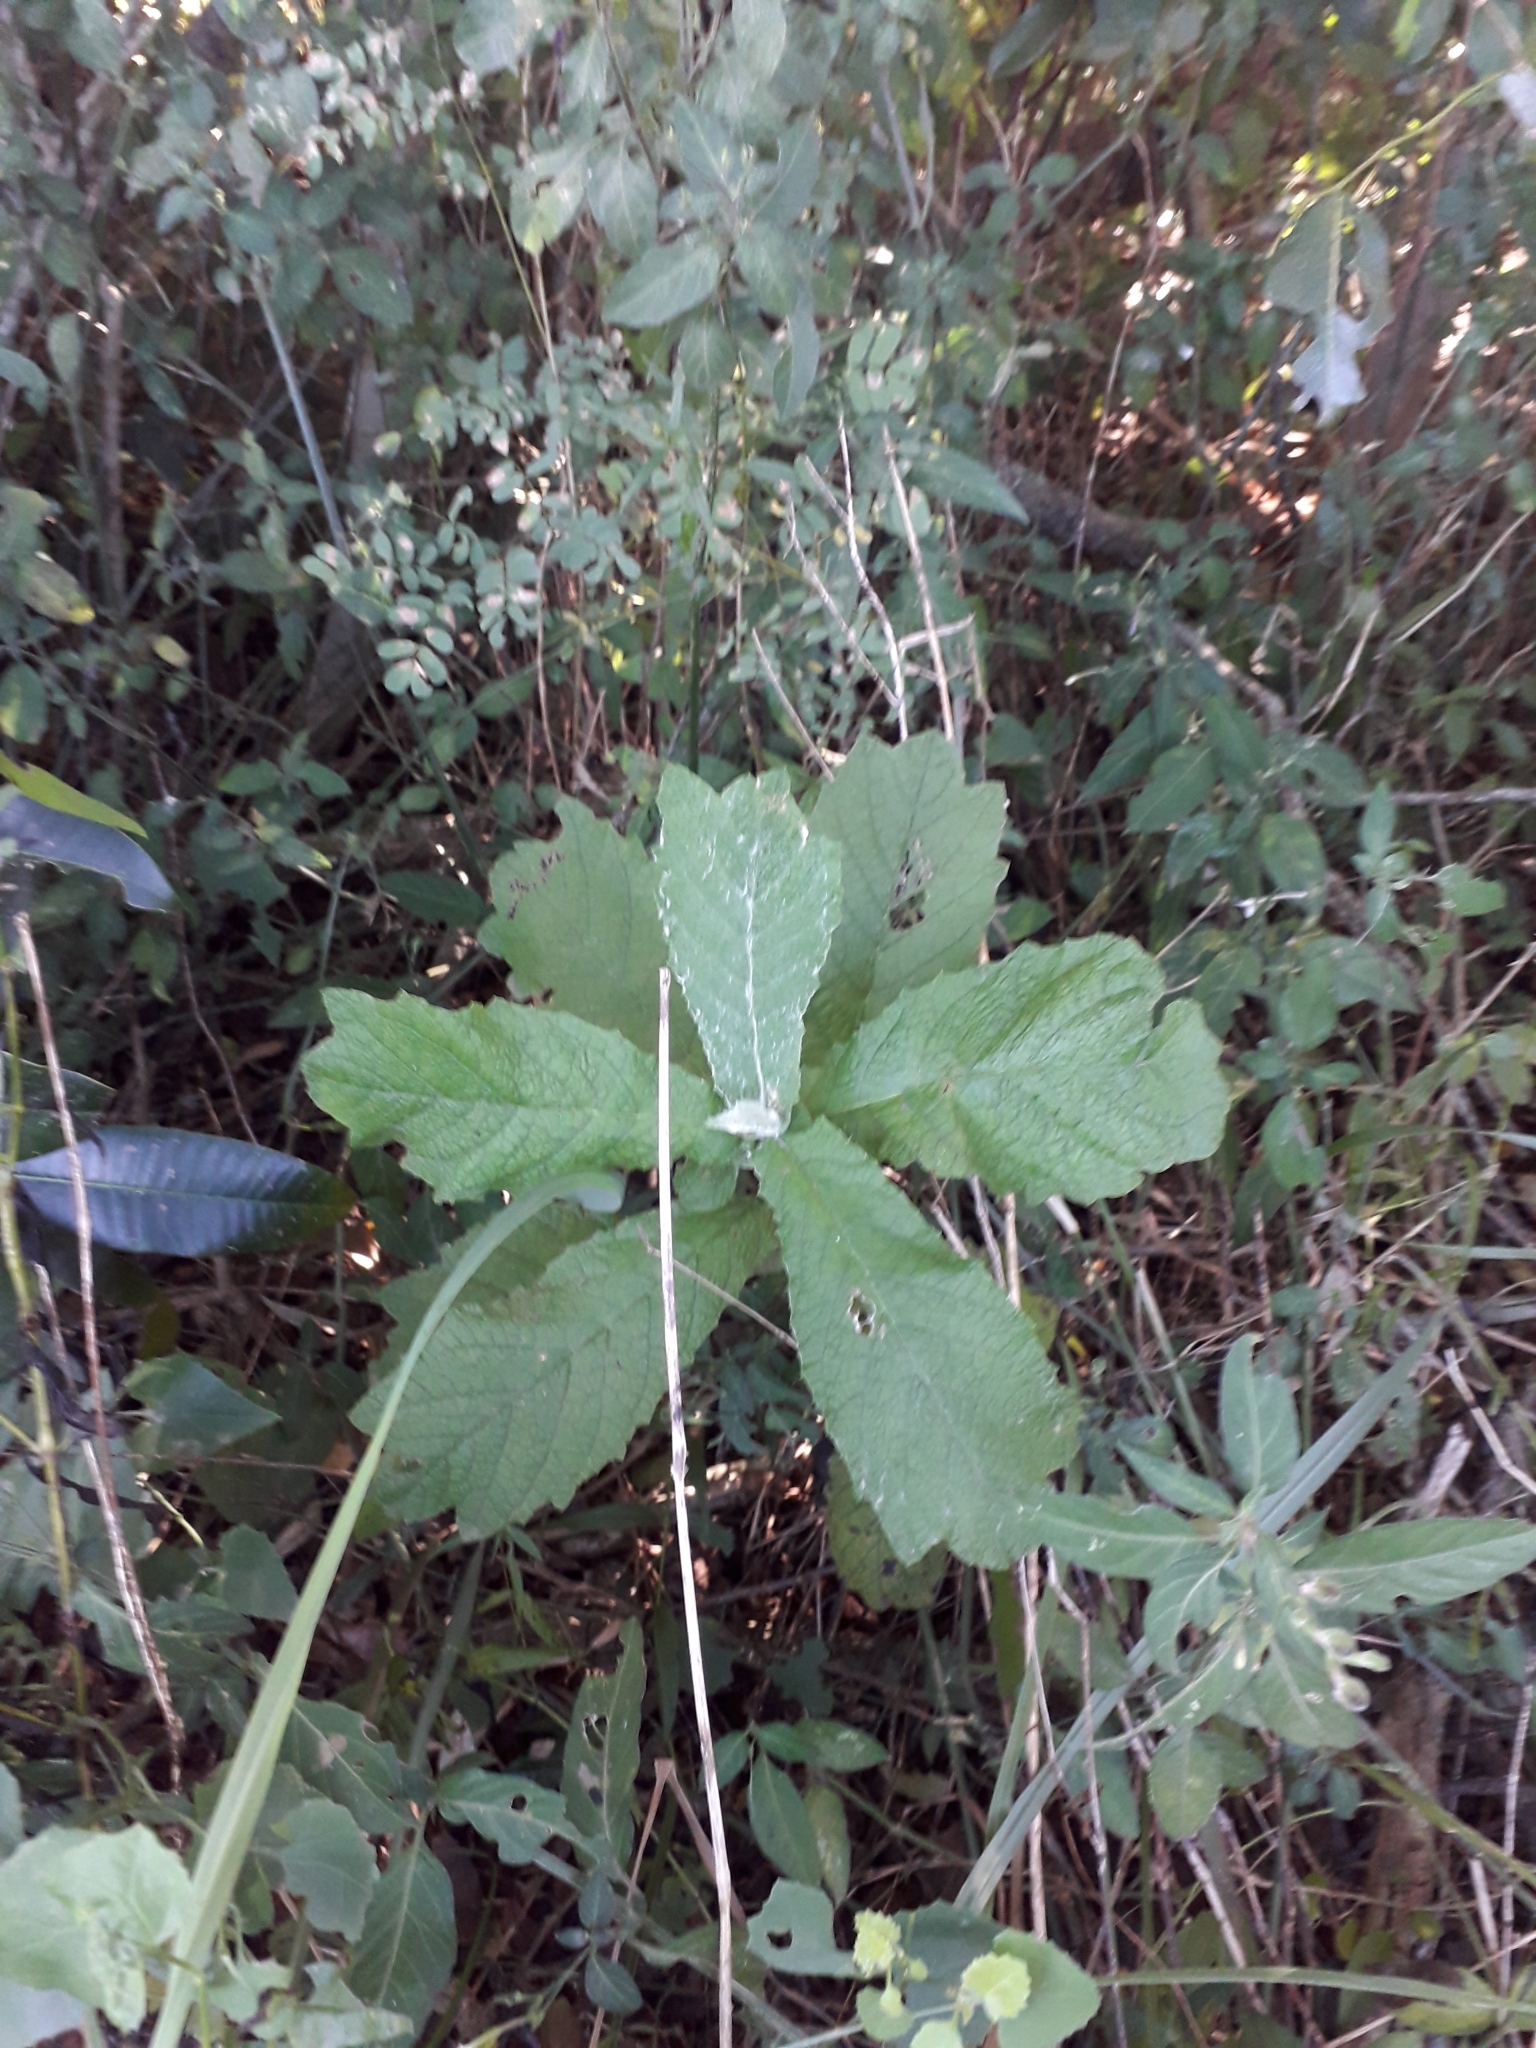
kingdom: Plantae
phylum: Tracheophyta
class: Magnoliopsida
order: Asterales
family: Asteraceae
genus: Tarchonanthus
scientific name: Tarchonanthus trilobus
